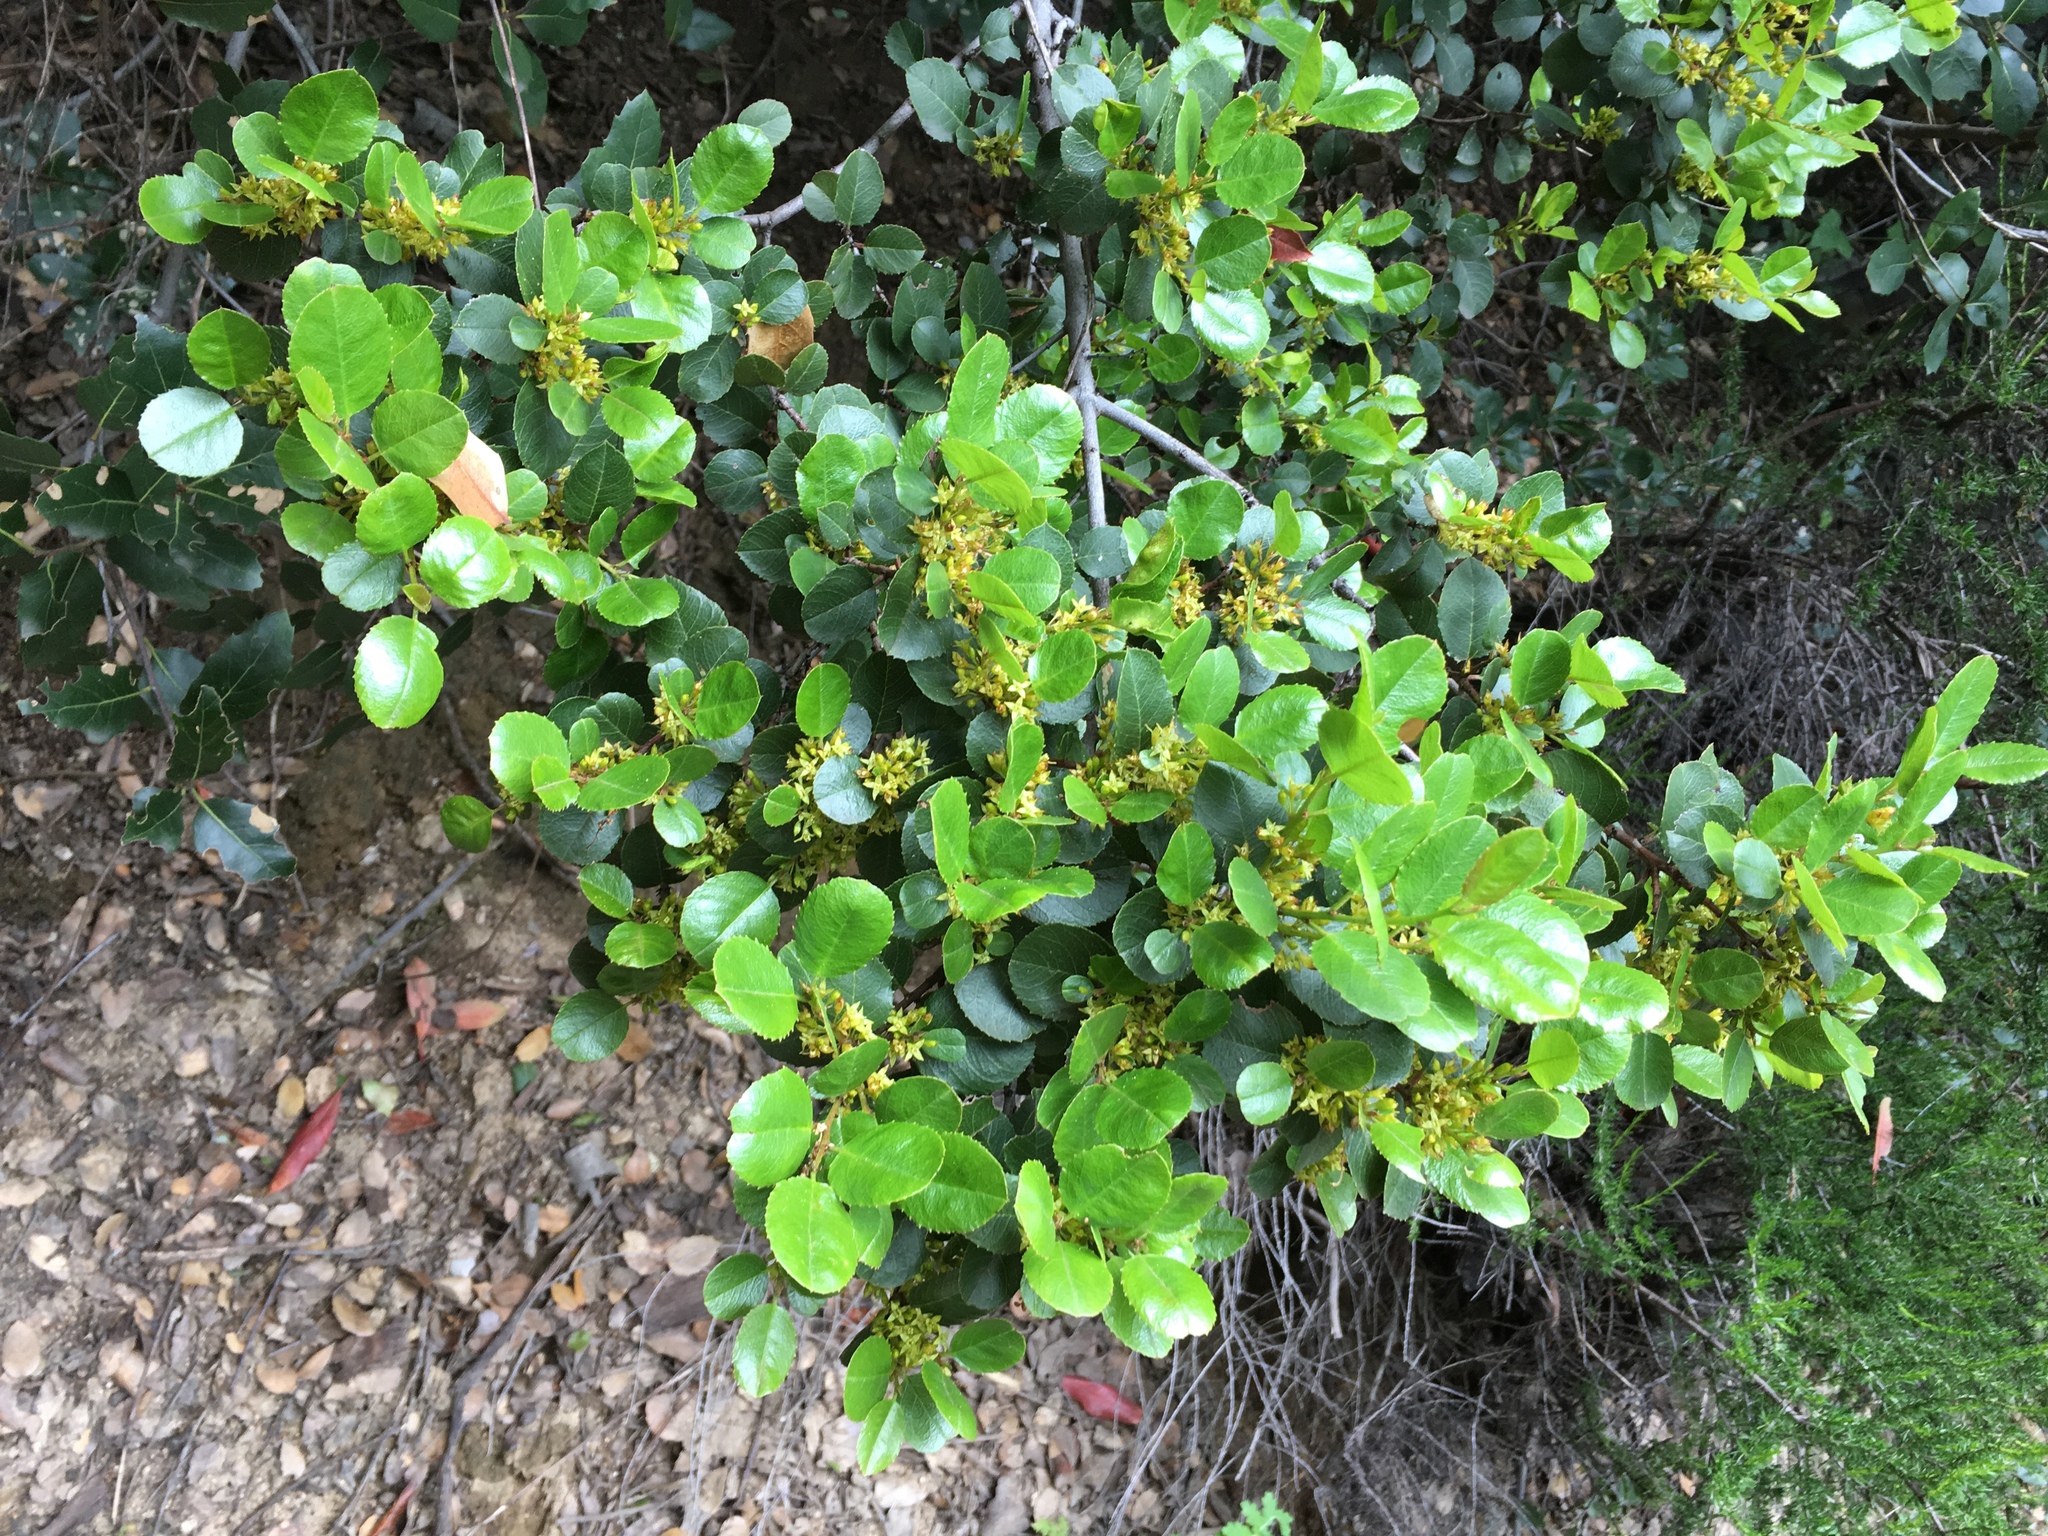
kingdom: Plantae
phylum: Tracheophyta
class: Magnoliopsida
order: Rosales
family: Rhamnaceae
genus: Endotropis
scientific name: Endotropis crocea
